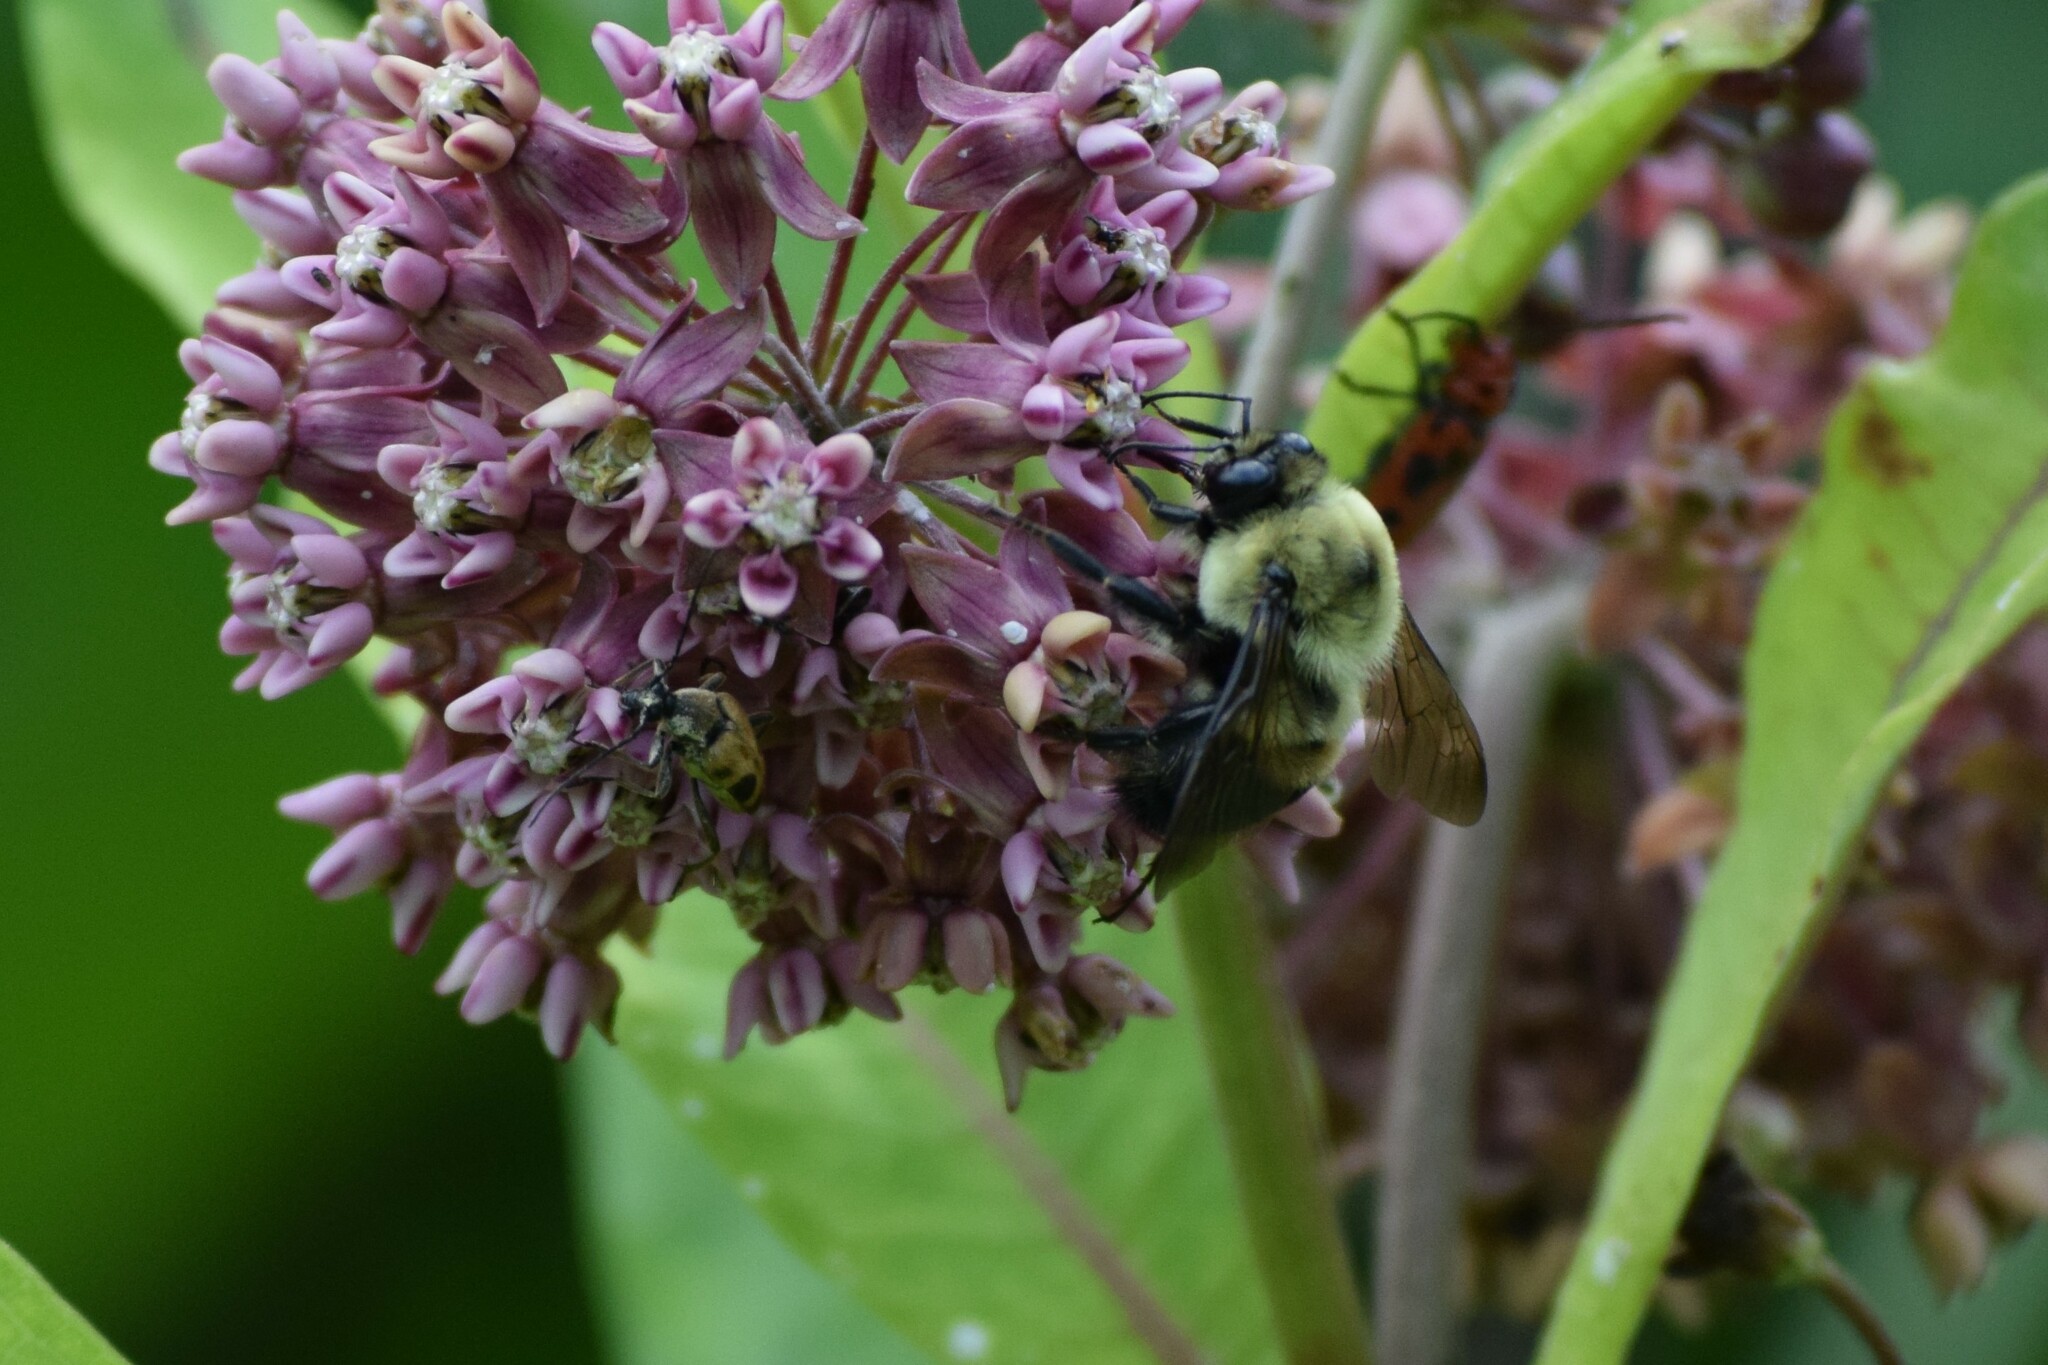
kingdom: Animalia
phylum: Arthropoda
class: Insecta
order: Hymenoptera
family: Apidae
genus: Bombus
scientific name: Bombus griseocollis
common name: Brown-belted bumble bee
